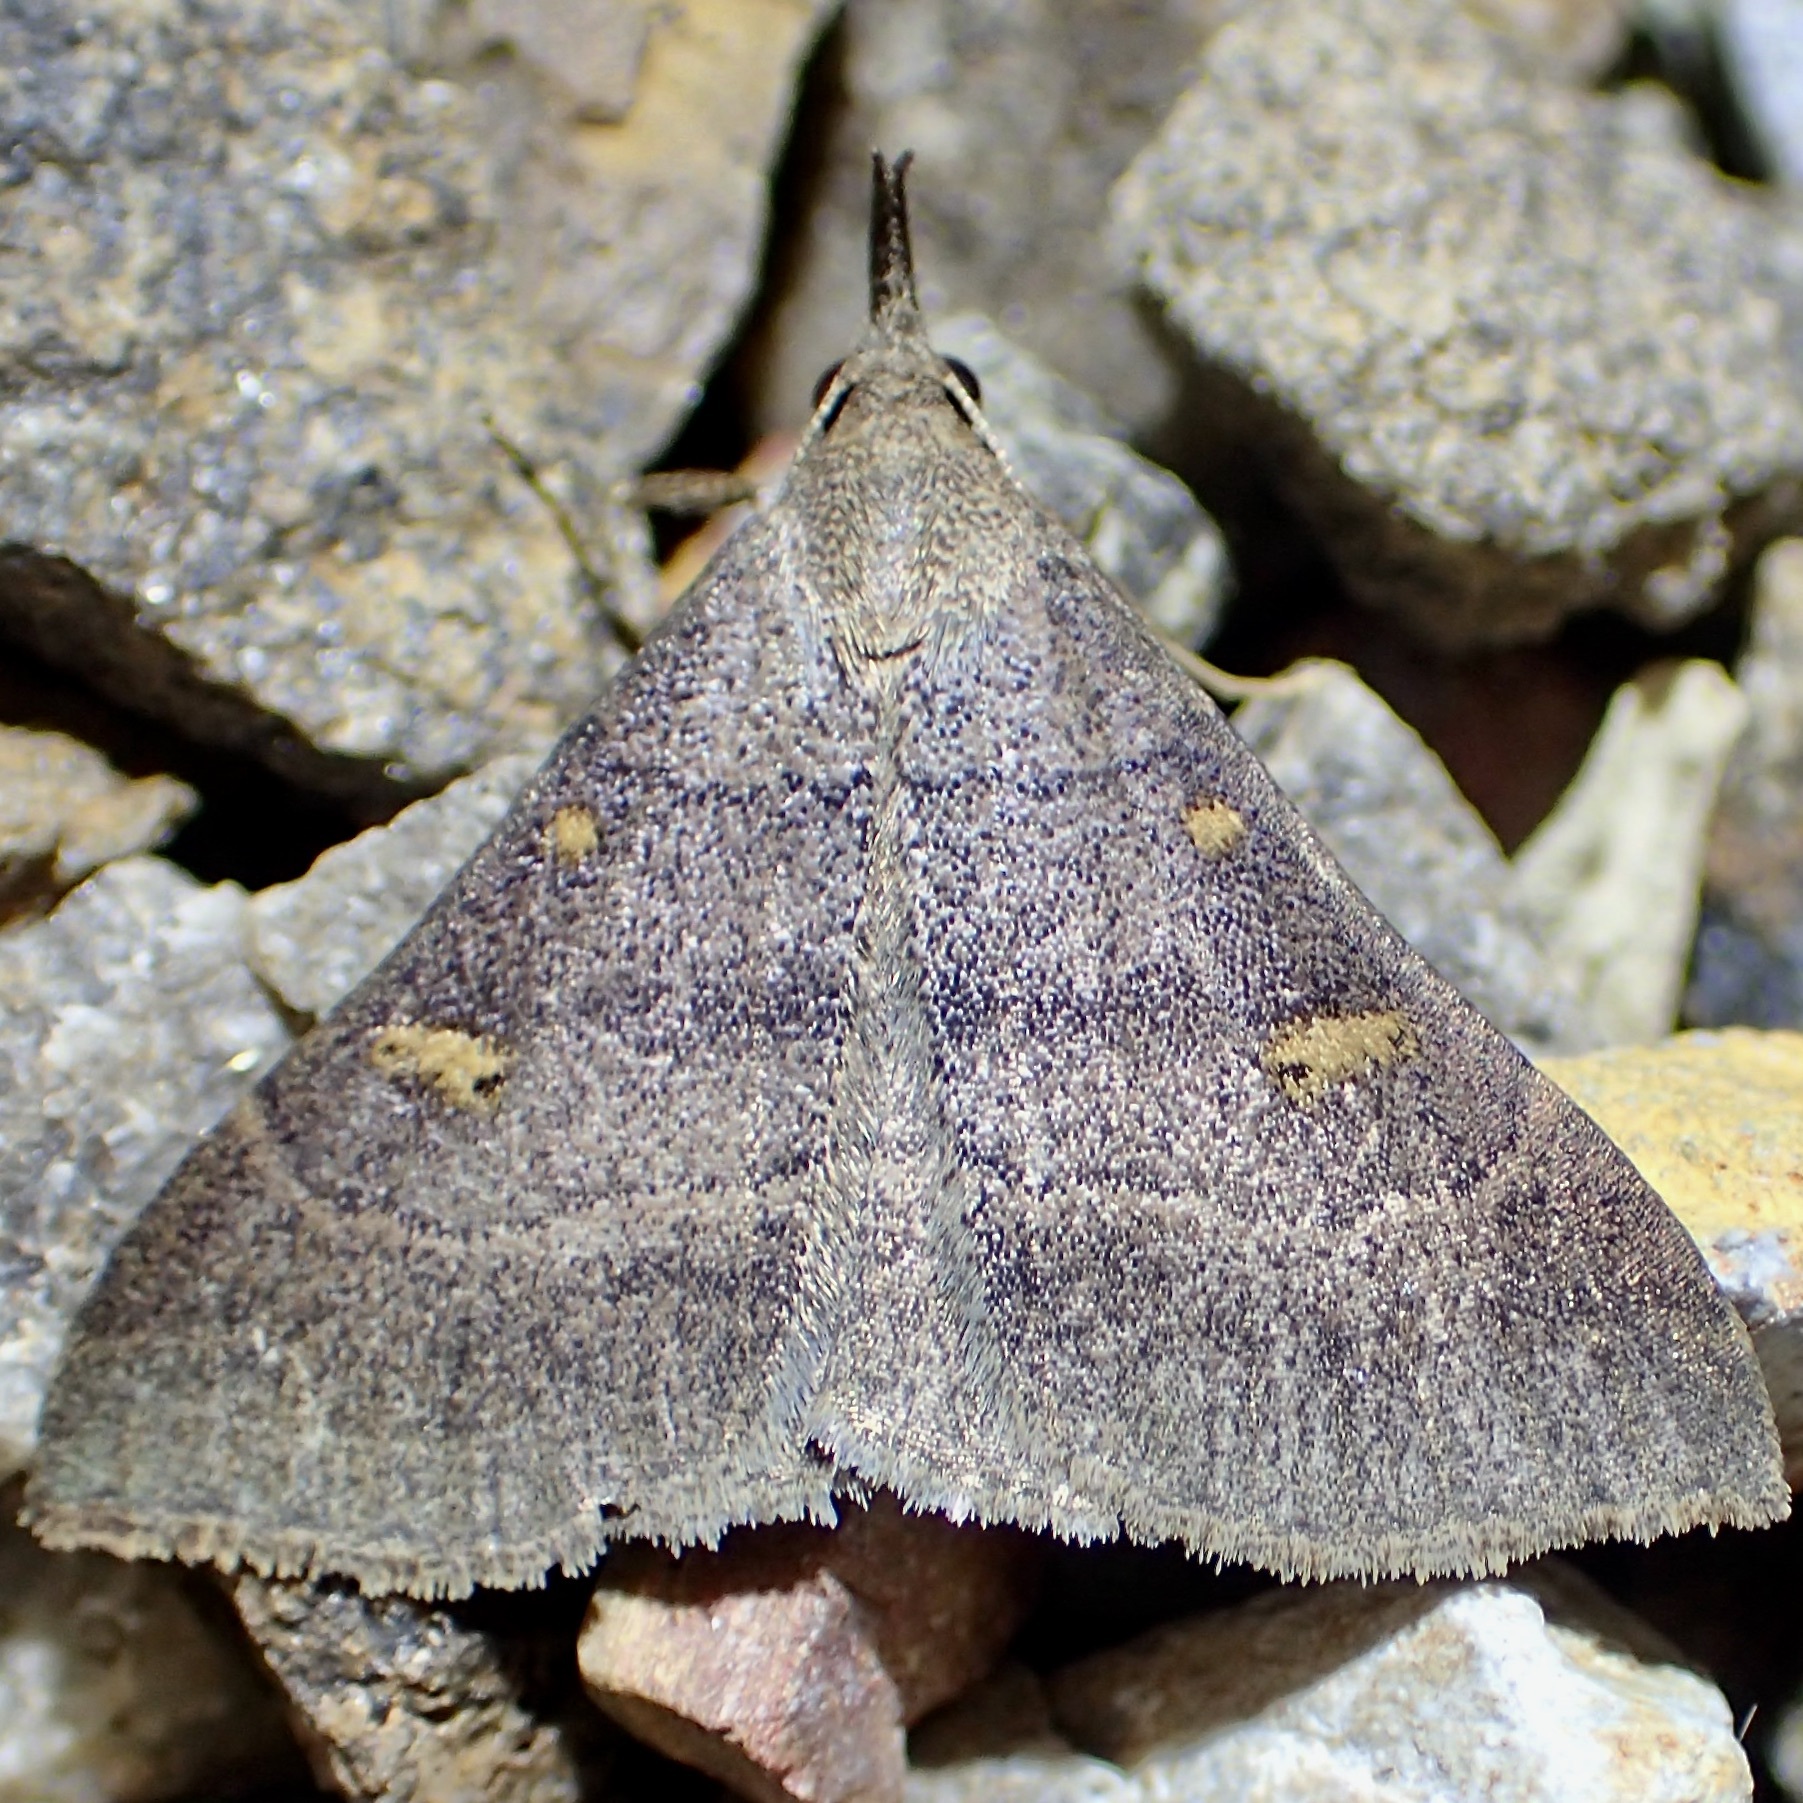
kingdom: Animalia
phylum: Arthropoda
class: Insecta
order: Lepidoptera
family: Erebidae
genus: Renia
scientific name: Renia hutsoni
